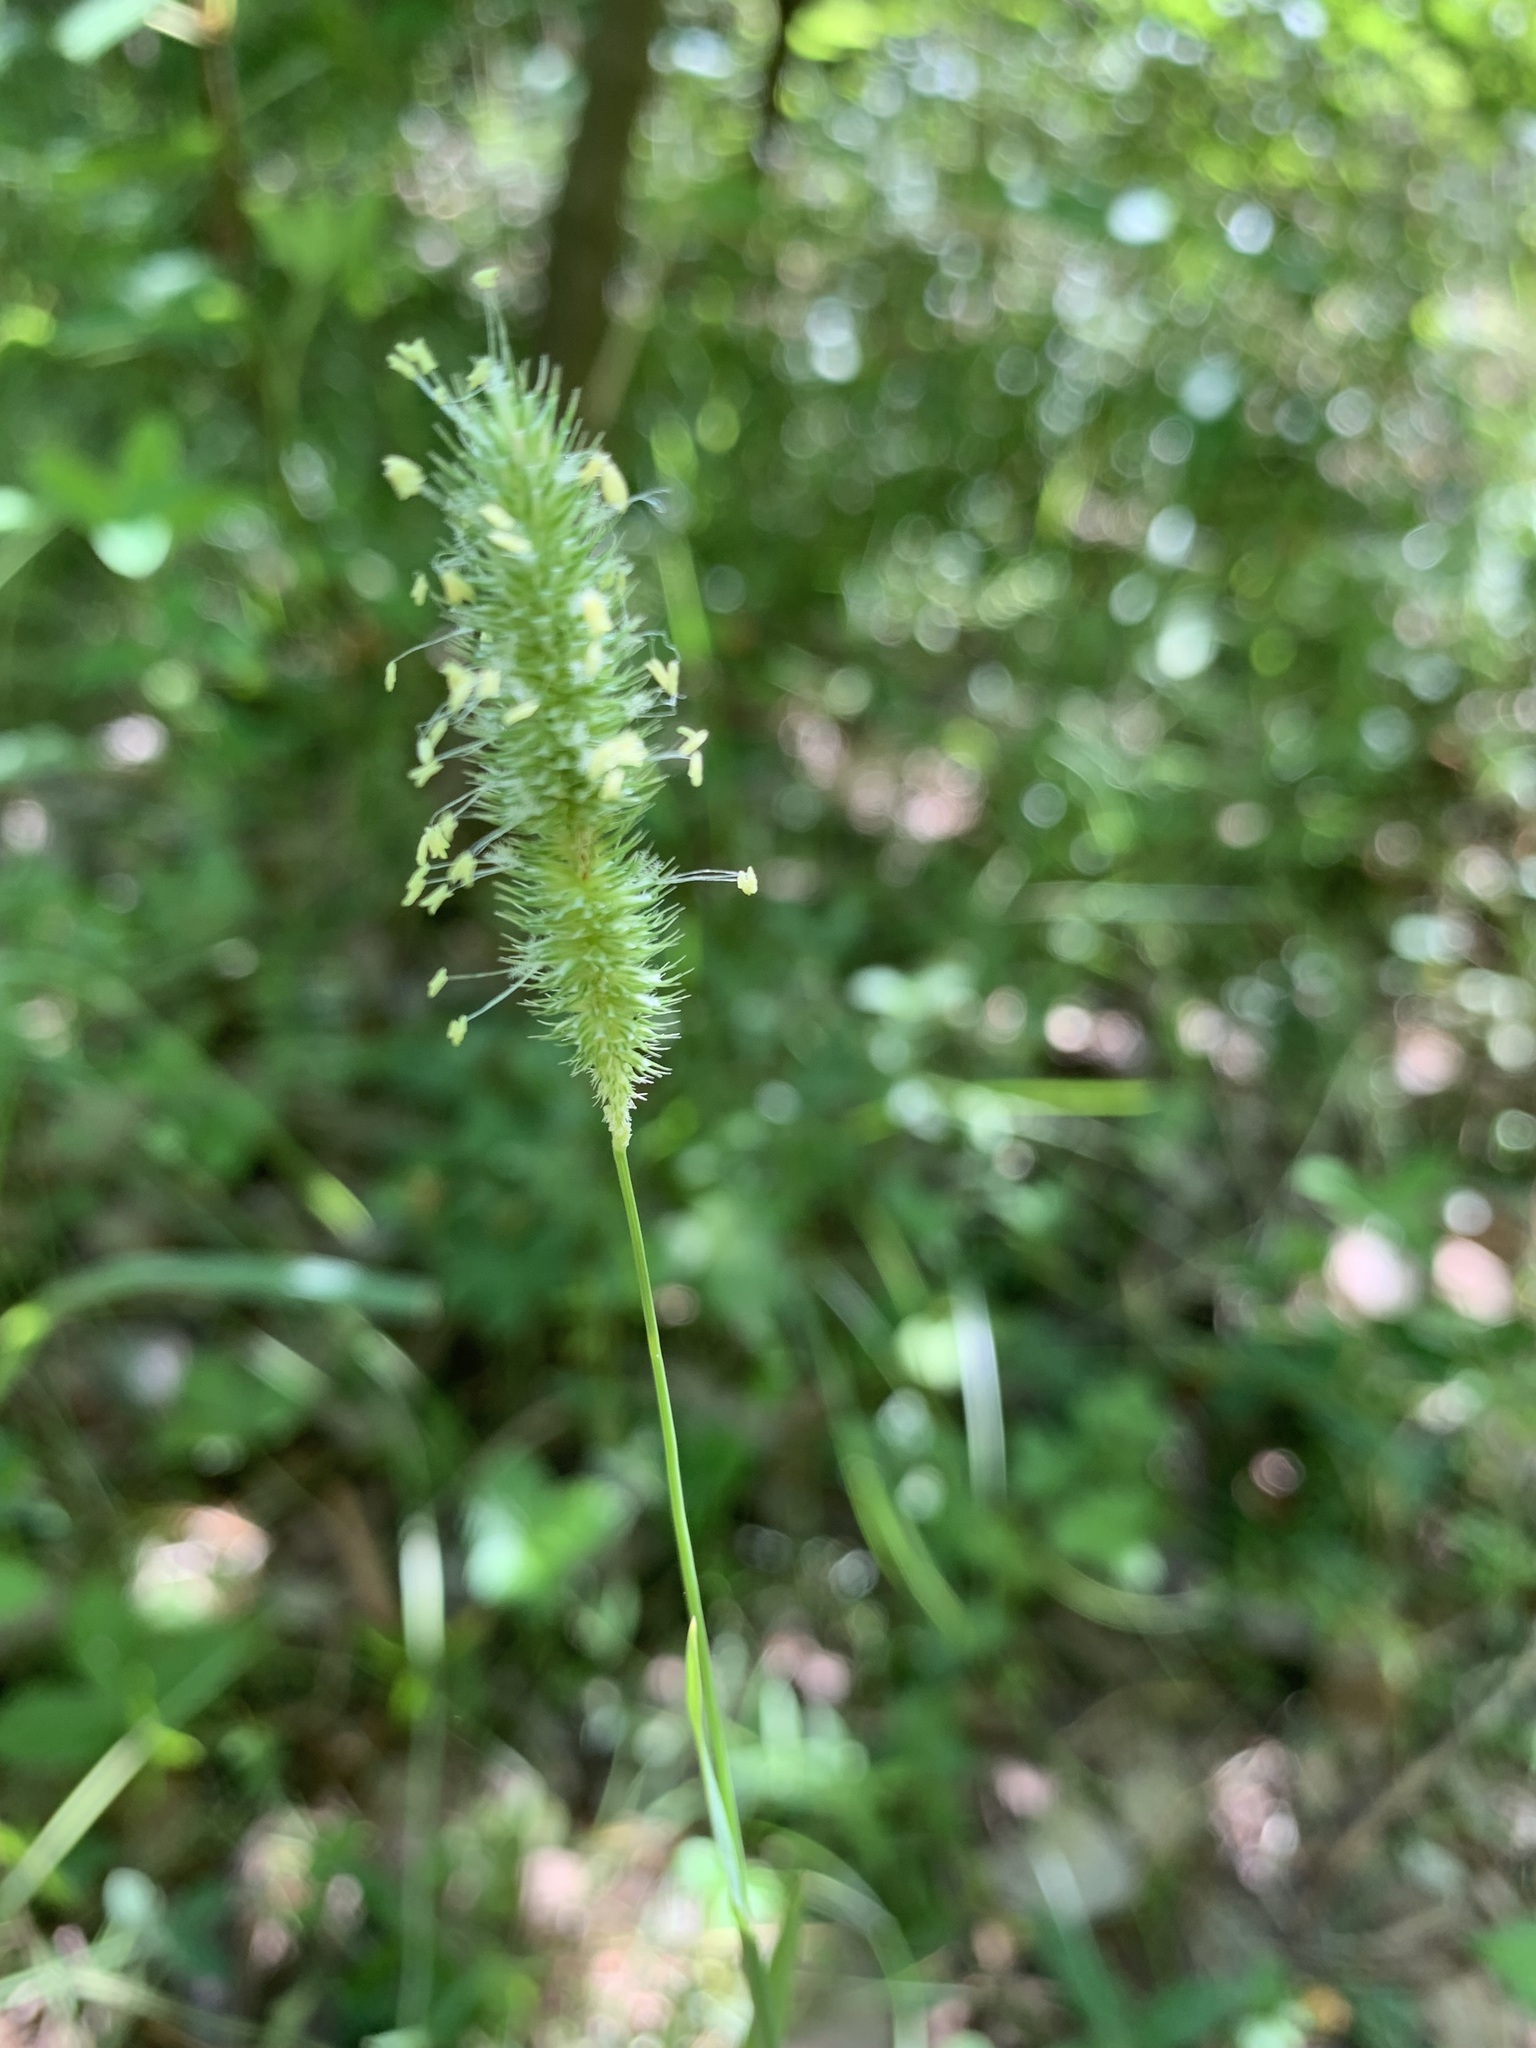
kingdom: Plantae
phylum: Tracheophyta
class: Liliopsida
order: Poales
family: Poaceae
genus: Phleum
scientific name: Phleum pratense
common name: Timothy grass
